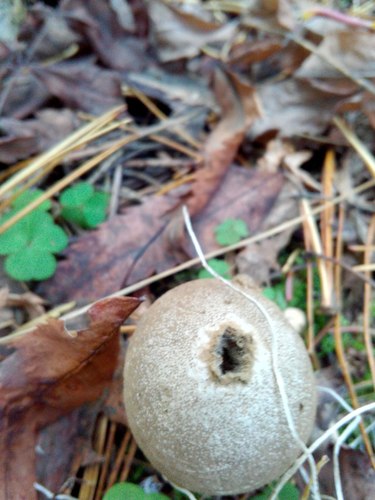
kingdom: Fungi
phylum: Basidiomycota
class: Agaricomycetes
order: Agaricales
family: Lycoperdaceae
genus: Lycoperdon
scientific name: Lycoperdon perlatum
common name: Common puffball
